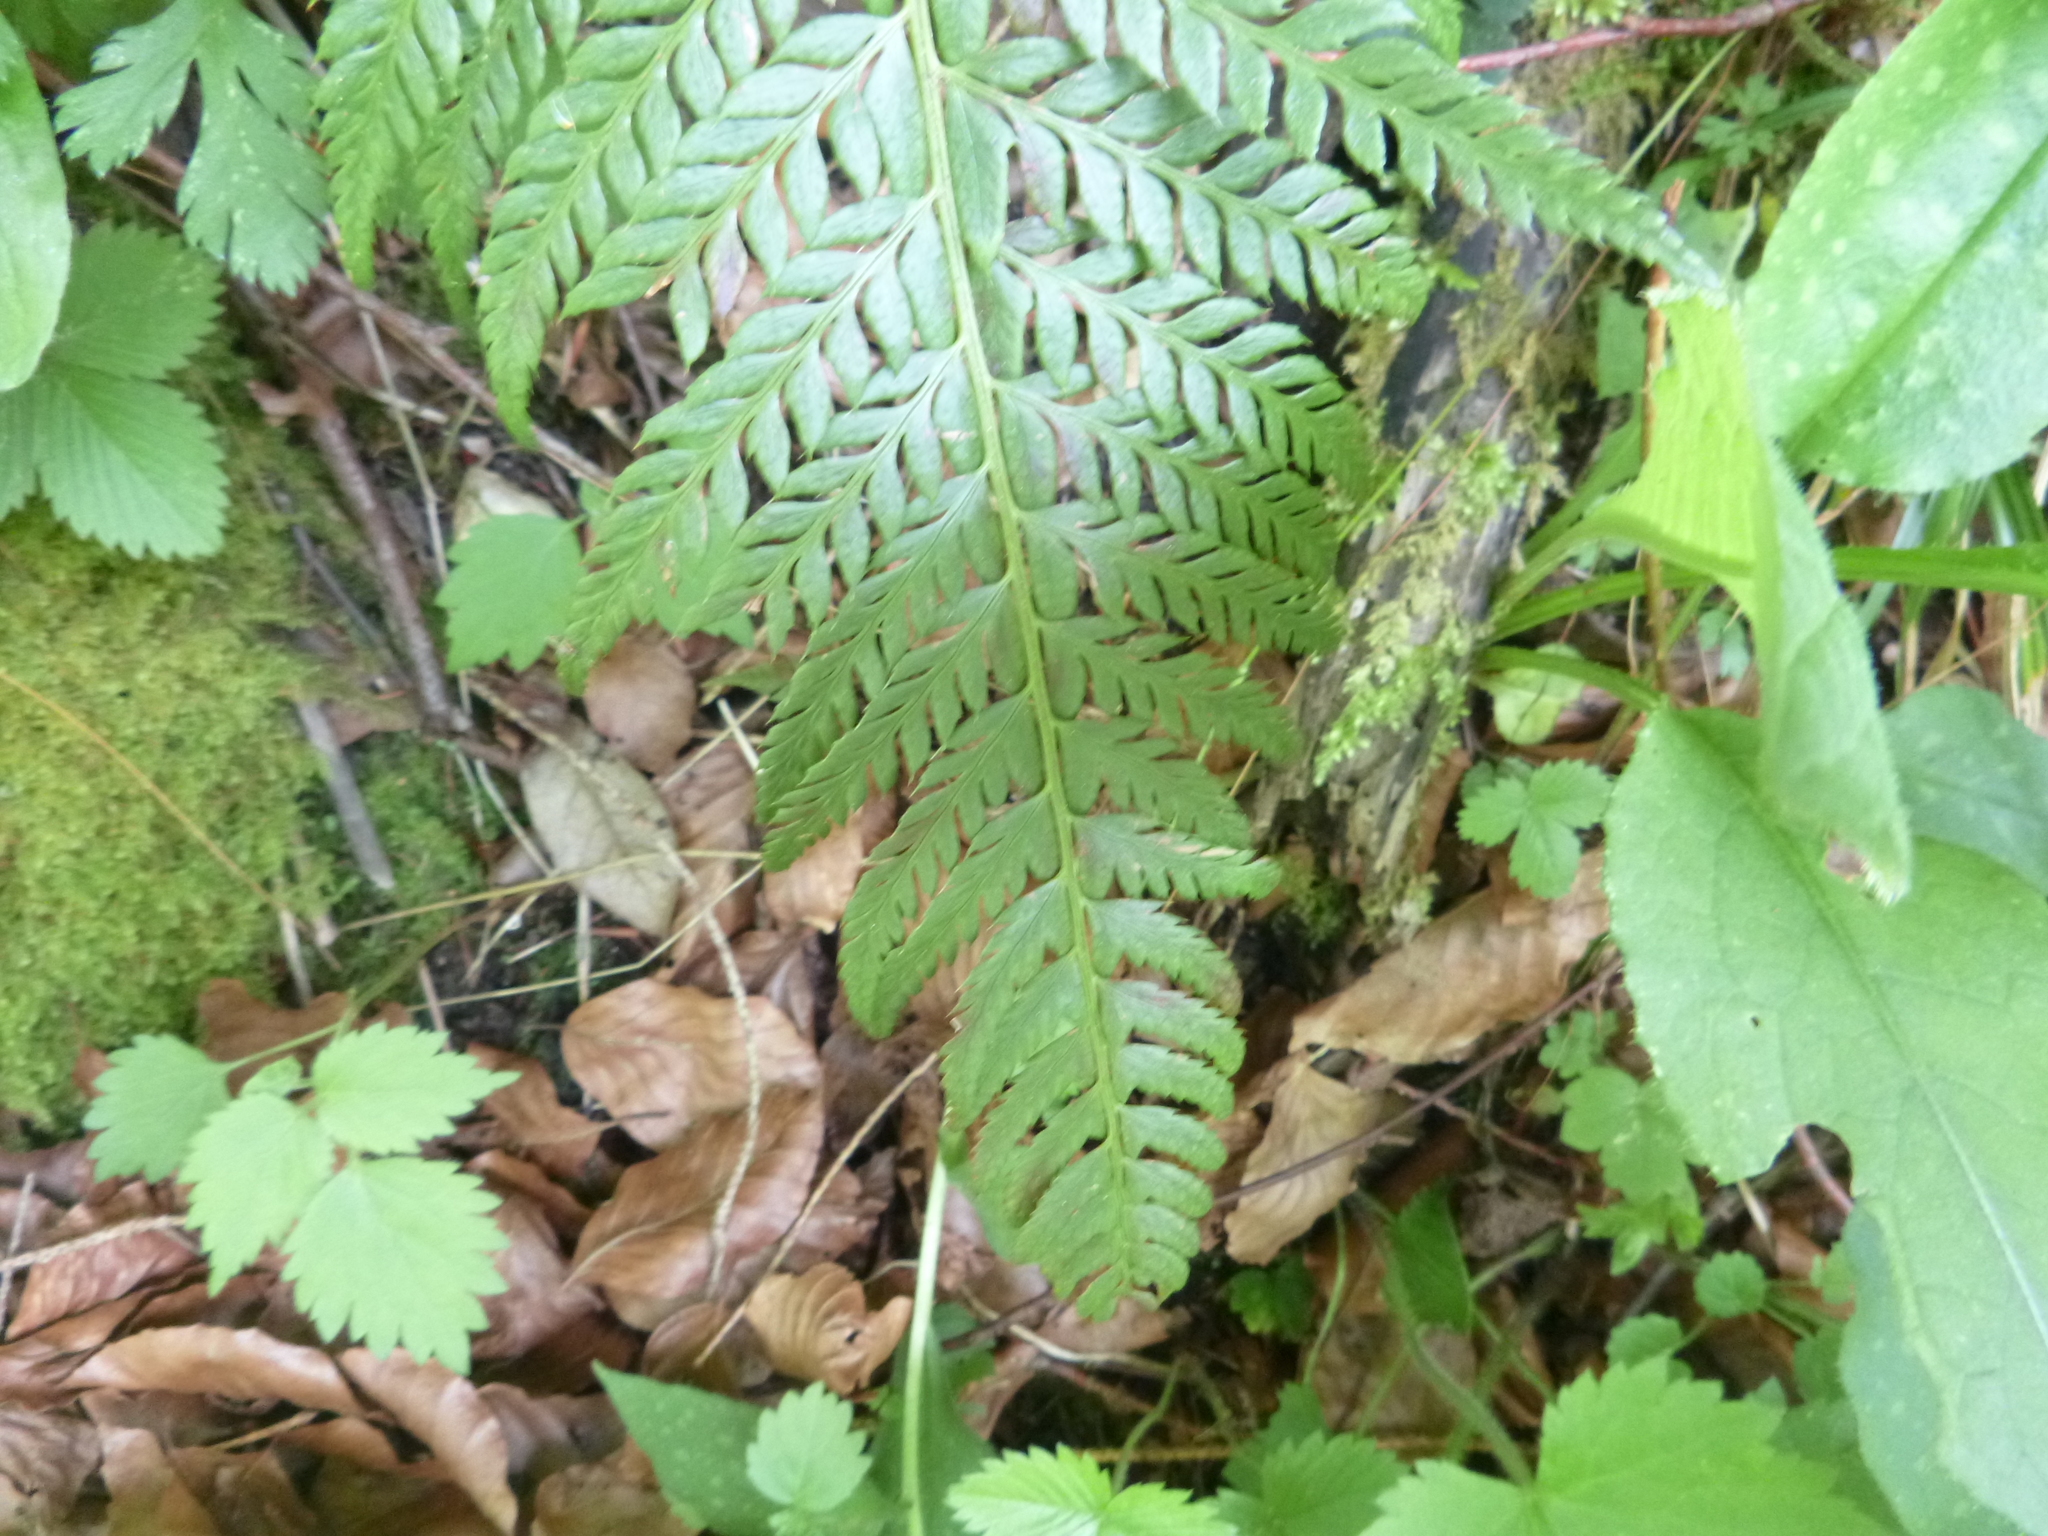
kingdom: Plantae
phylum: Tracheophyta
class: Polypodiopsida
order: Polypodiales
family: Dryopteridaceae
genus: Polystichum
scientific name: Polystichum aculeatum
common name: Hard shield-fern
